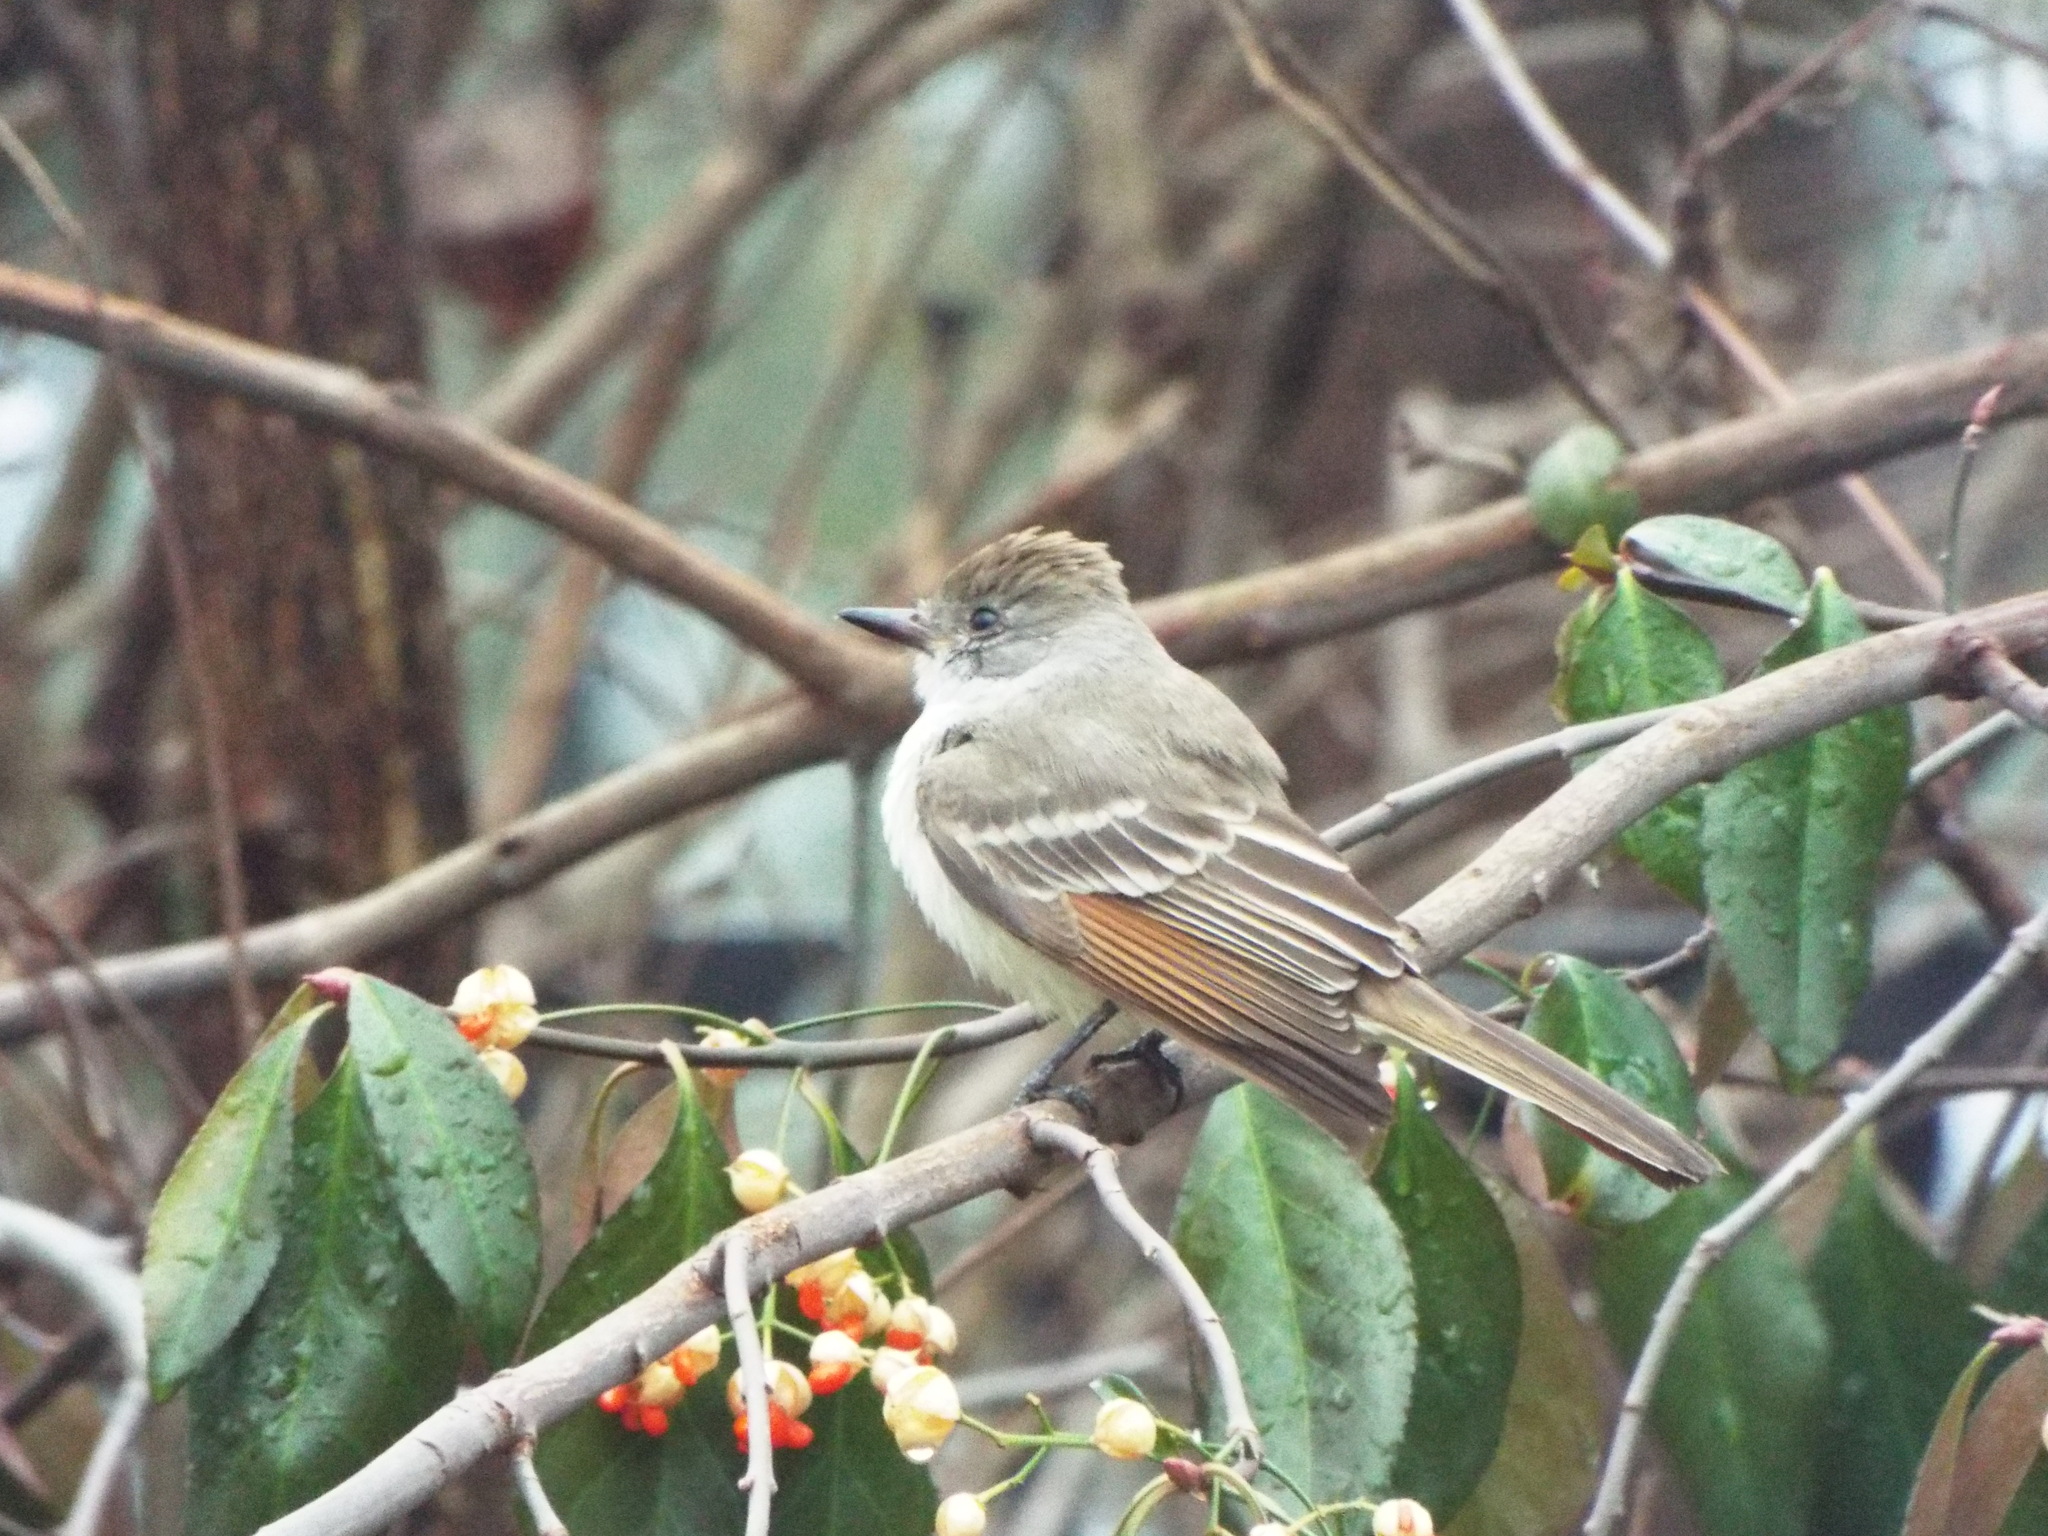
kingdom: Animalia
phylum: Chordata
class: Aves
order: Passeriformes
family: Tyrannidae
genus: Myiarchus
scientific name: Myiarchus cinerascens
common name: Ash-throated flycatcher
